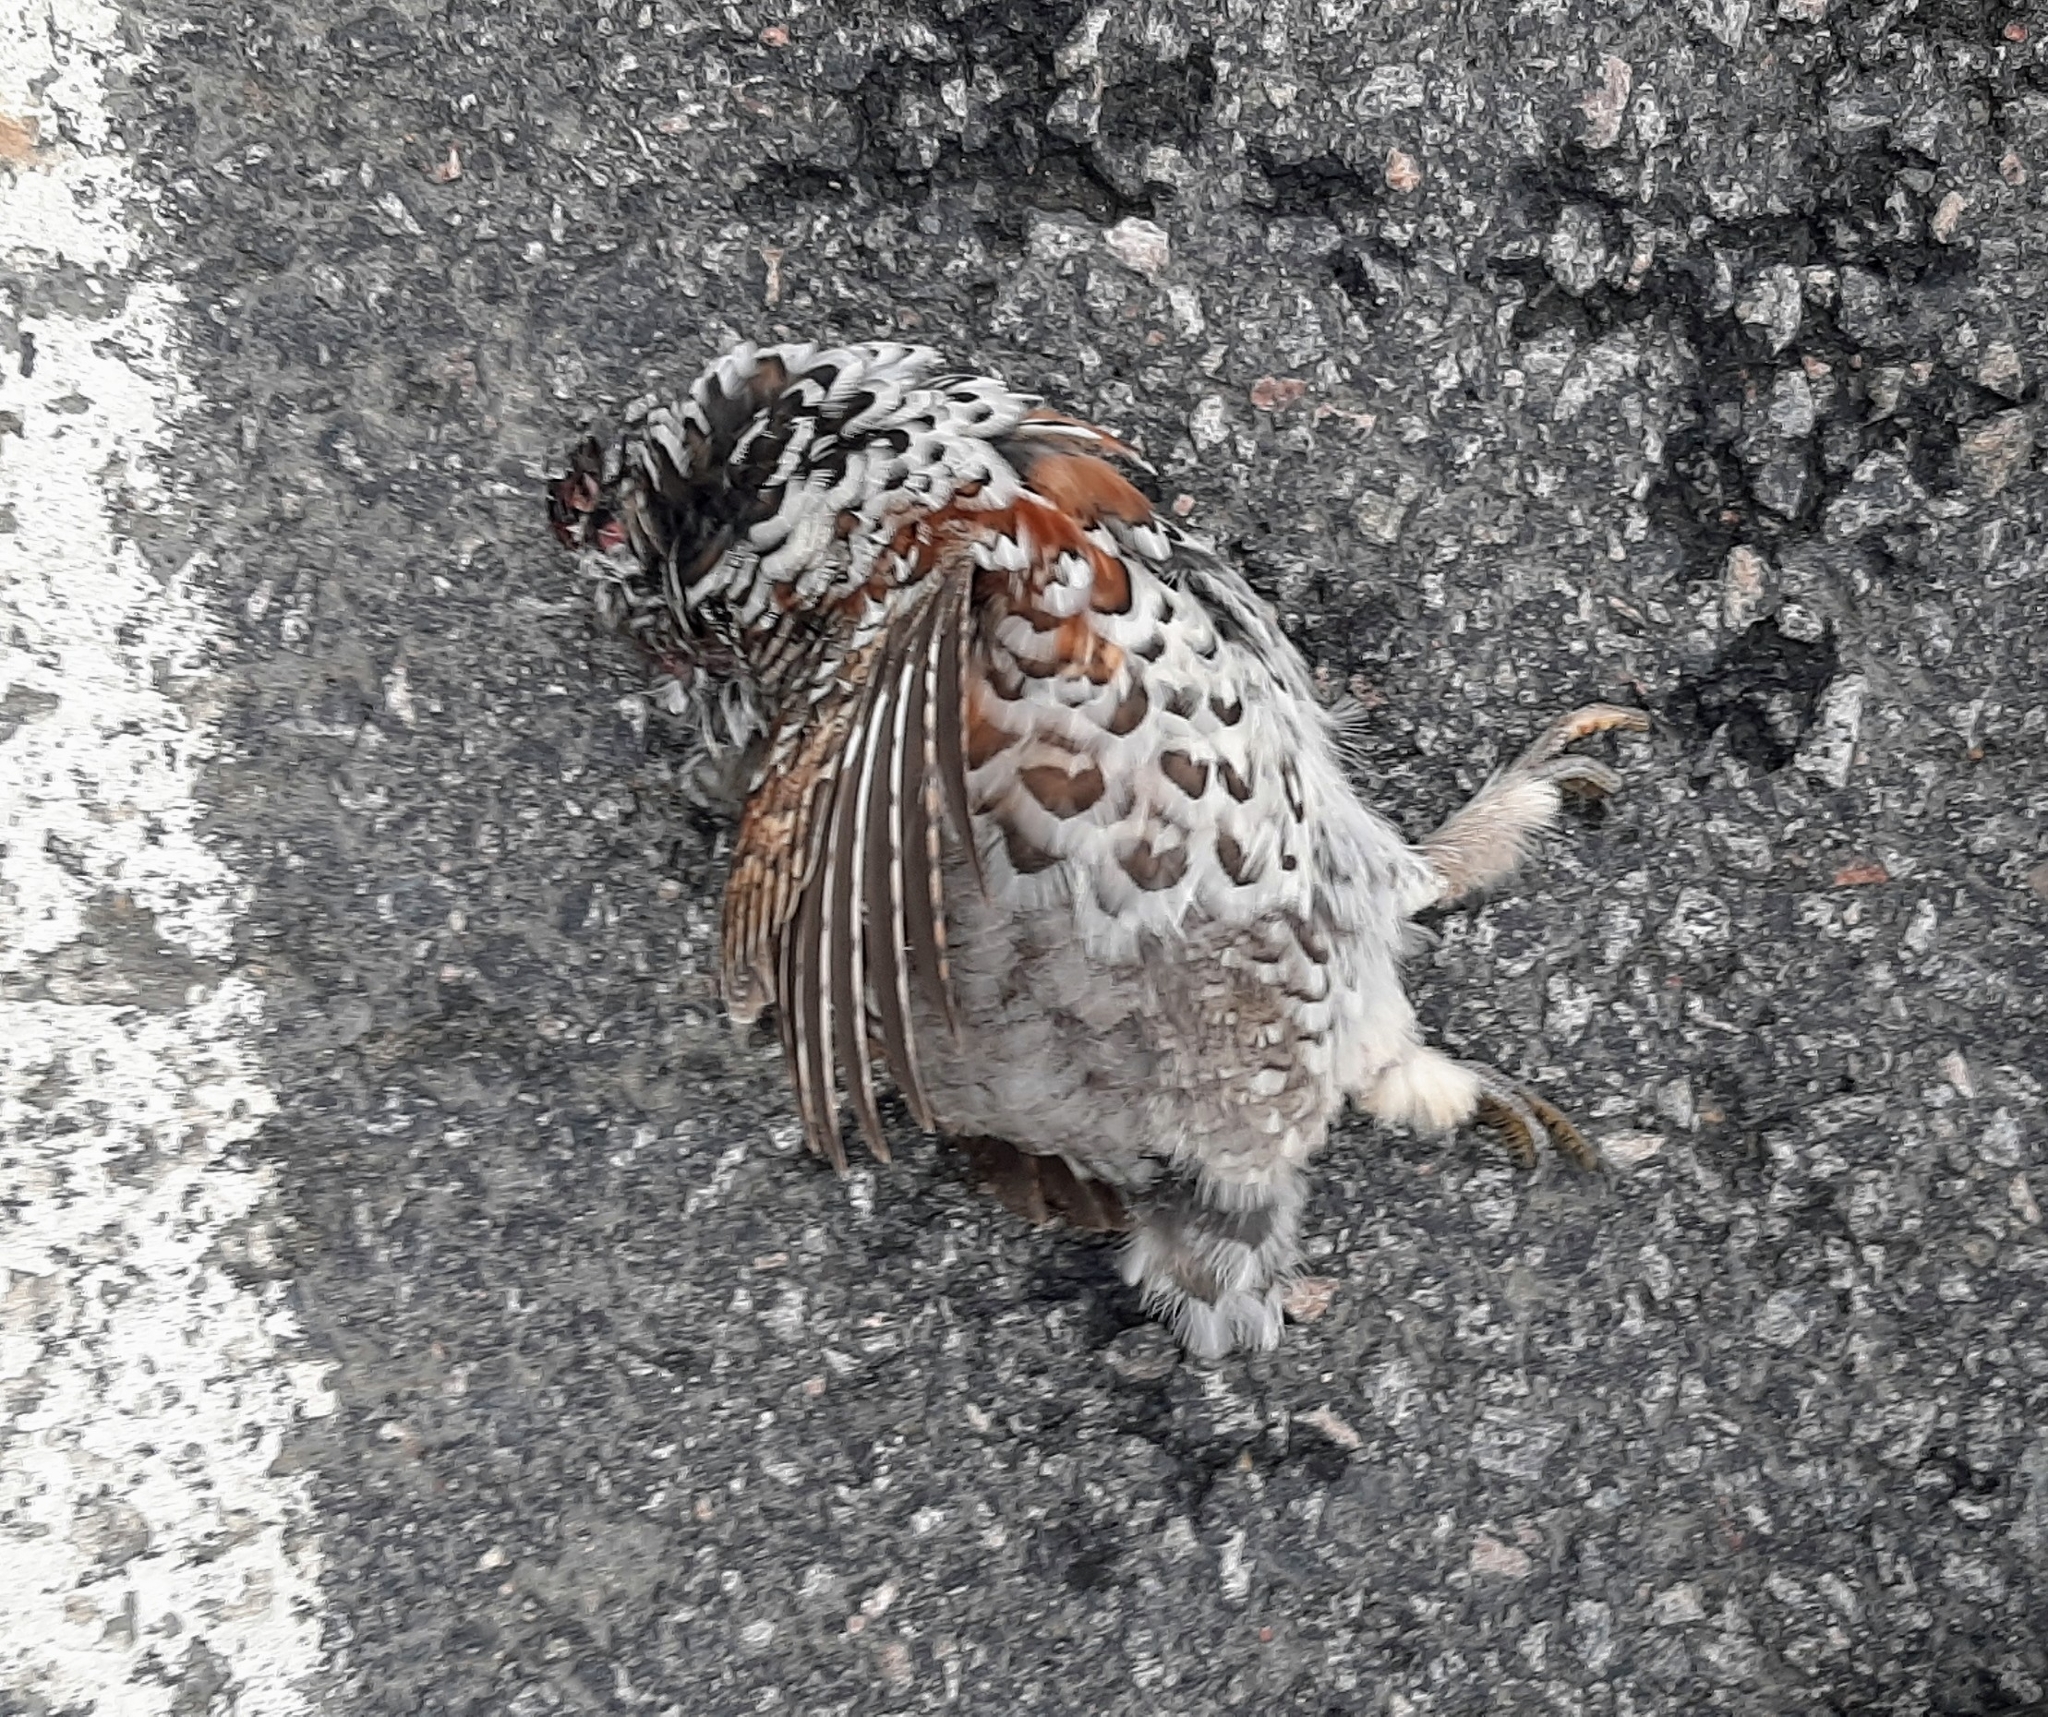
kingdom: Animalia
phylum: Chordata
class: Aves
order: Galliformes
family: Phasianidae
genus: Tetrastes
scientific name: Tetrastes bonasia
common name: Hazel grouse
